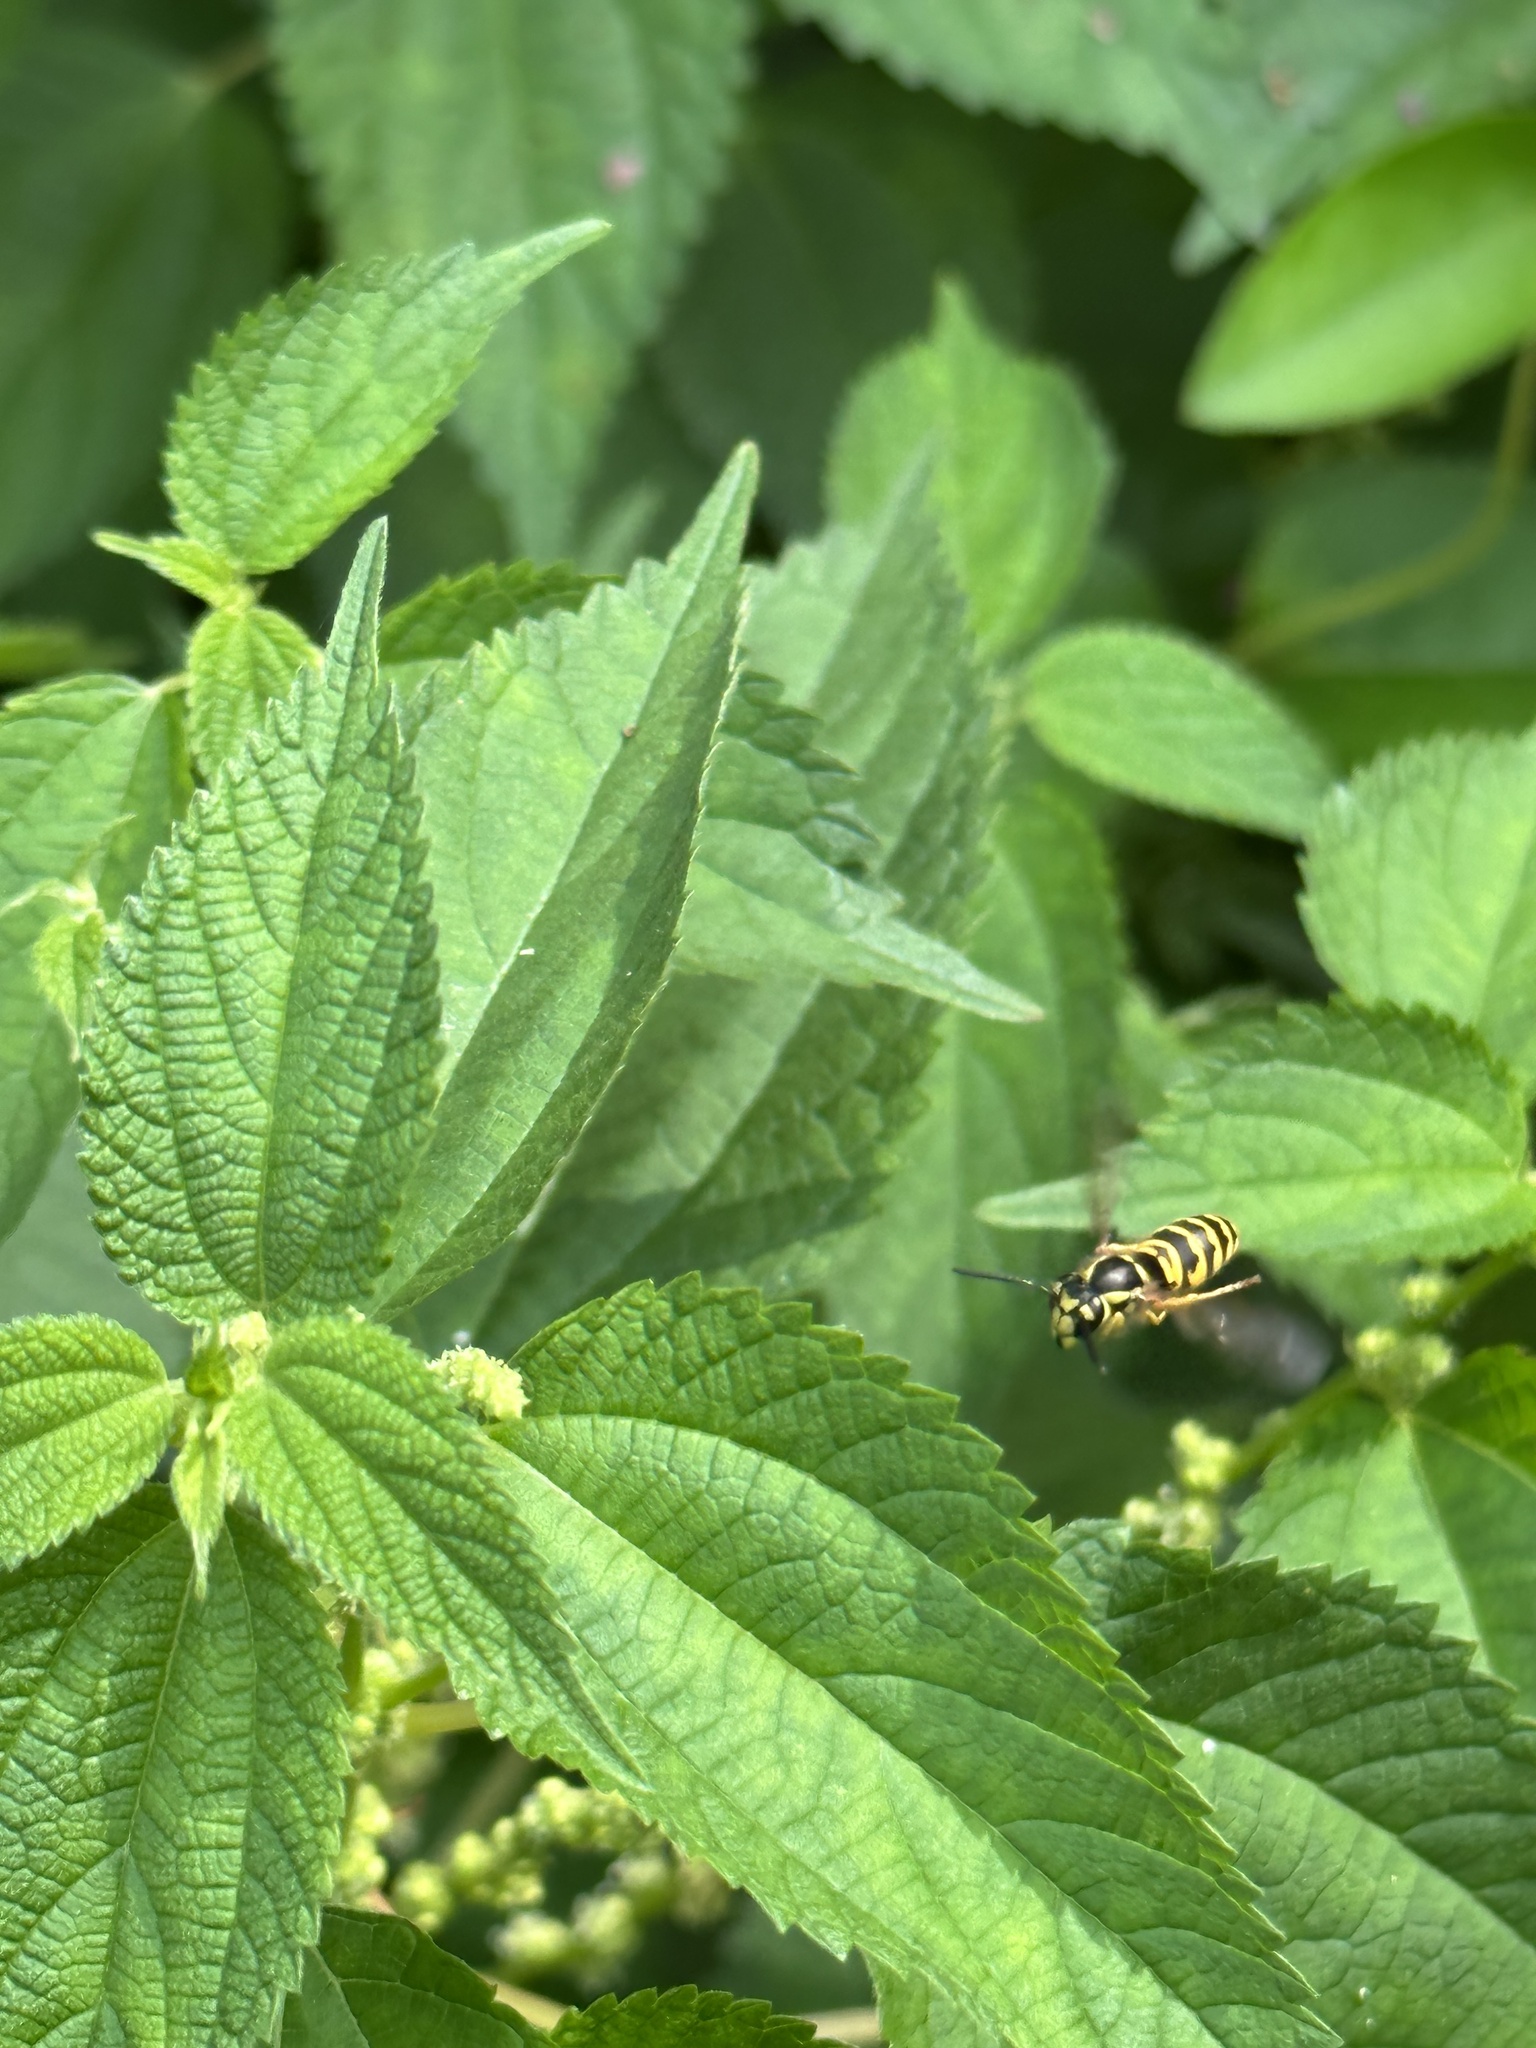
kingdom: Animalia
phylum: Arthropoda
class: Insecta
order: Hymenoptera
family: Vespidae
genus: Vespula
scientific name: Vespula maculifrons
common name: Eastern yellowjacket
